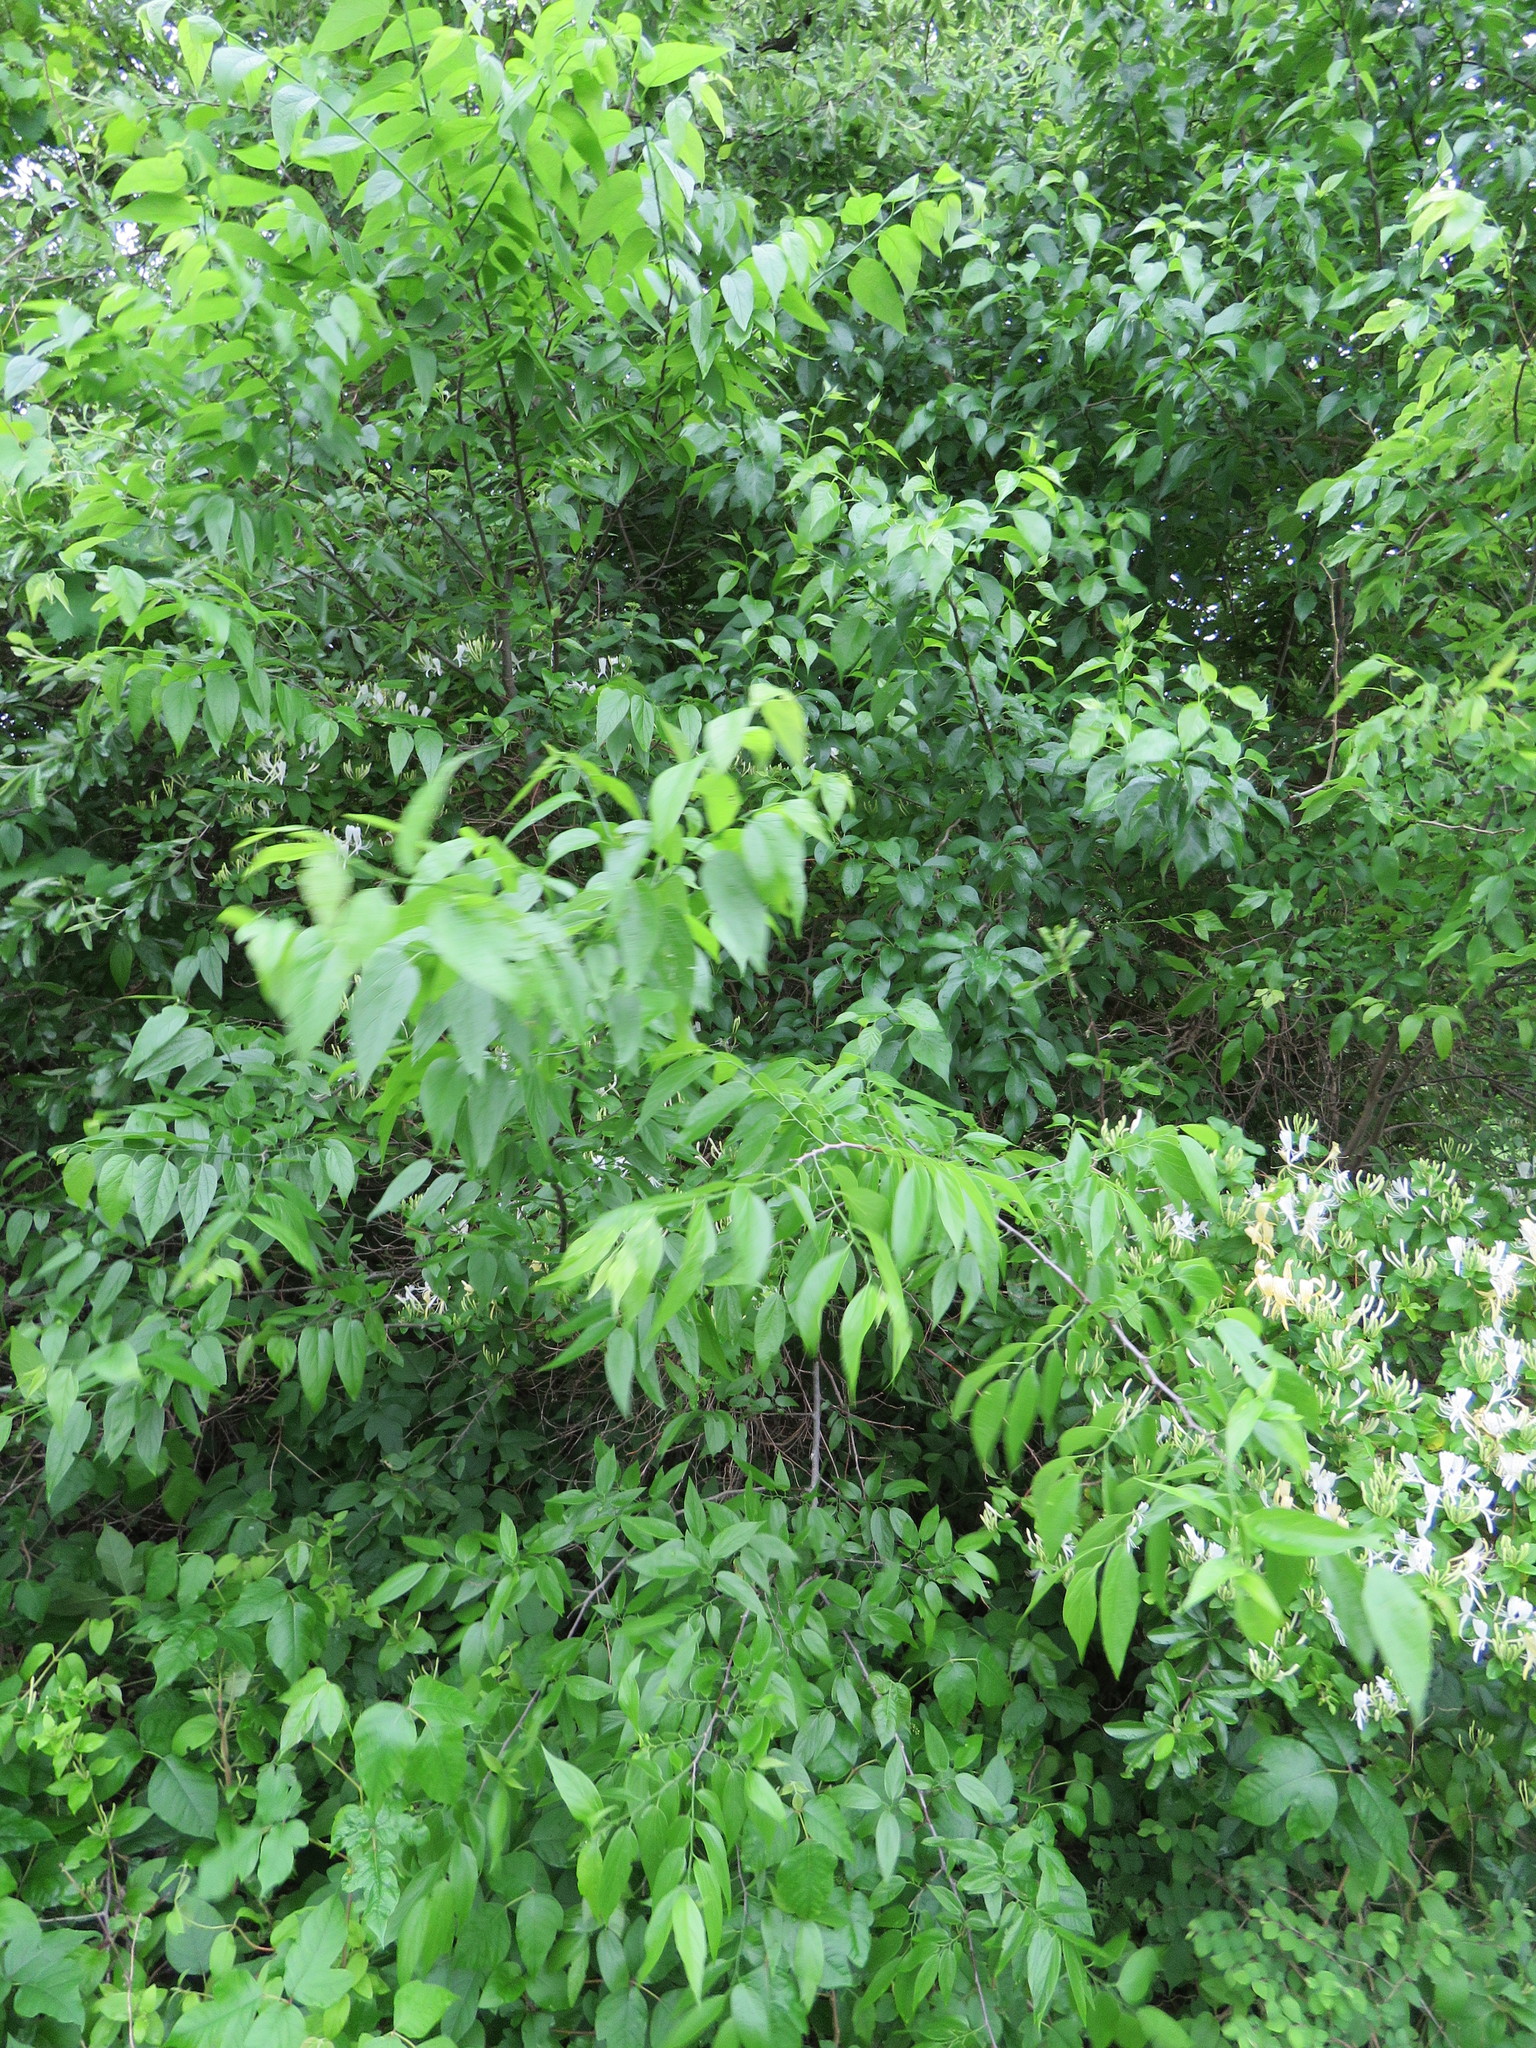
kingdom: Plantae
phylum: Tracheophyta
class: Magnoliopsida
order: Rosales
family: Cannabaceae
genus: Celtis
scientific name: Celtis laevigata
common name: Sugarberry
